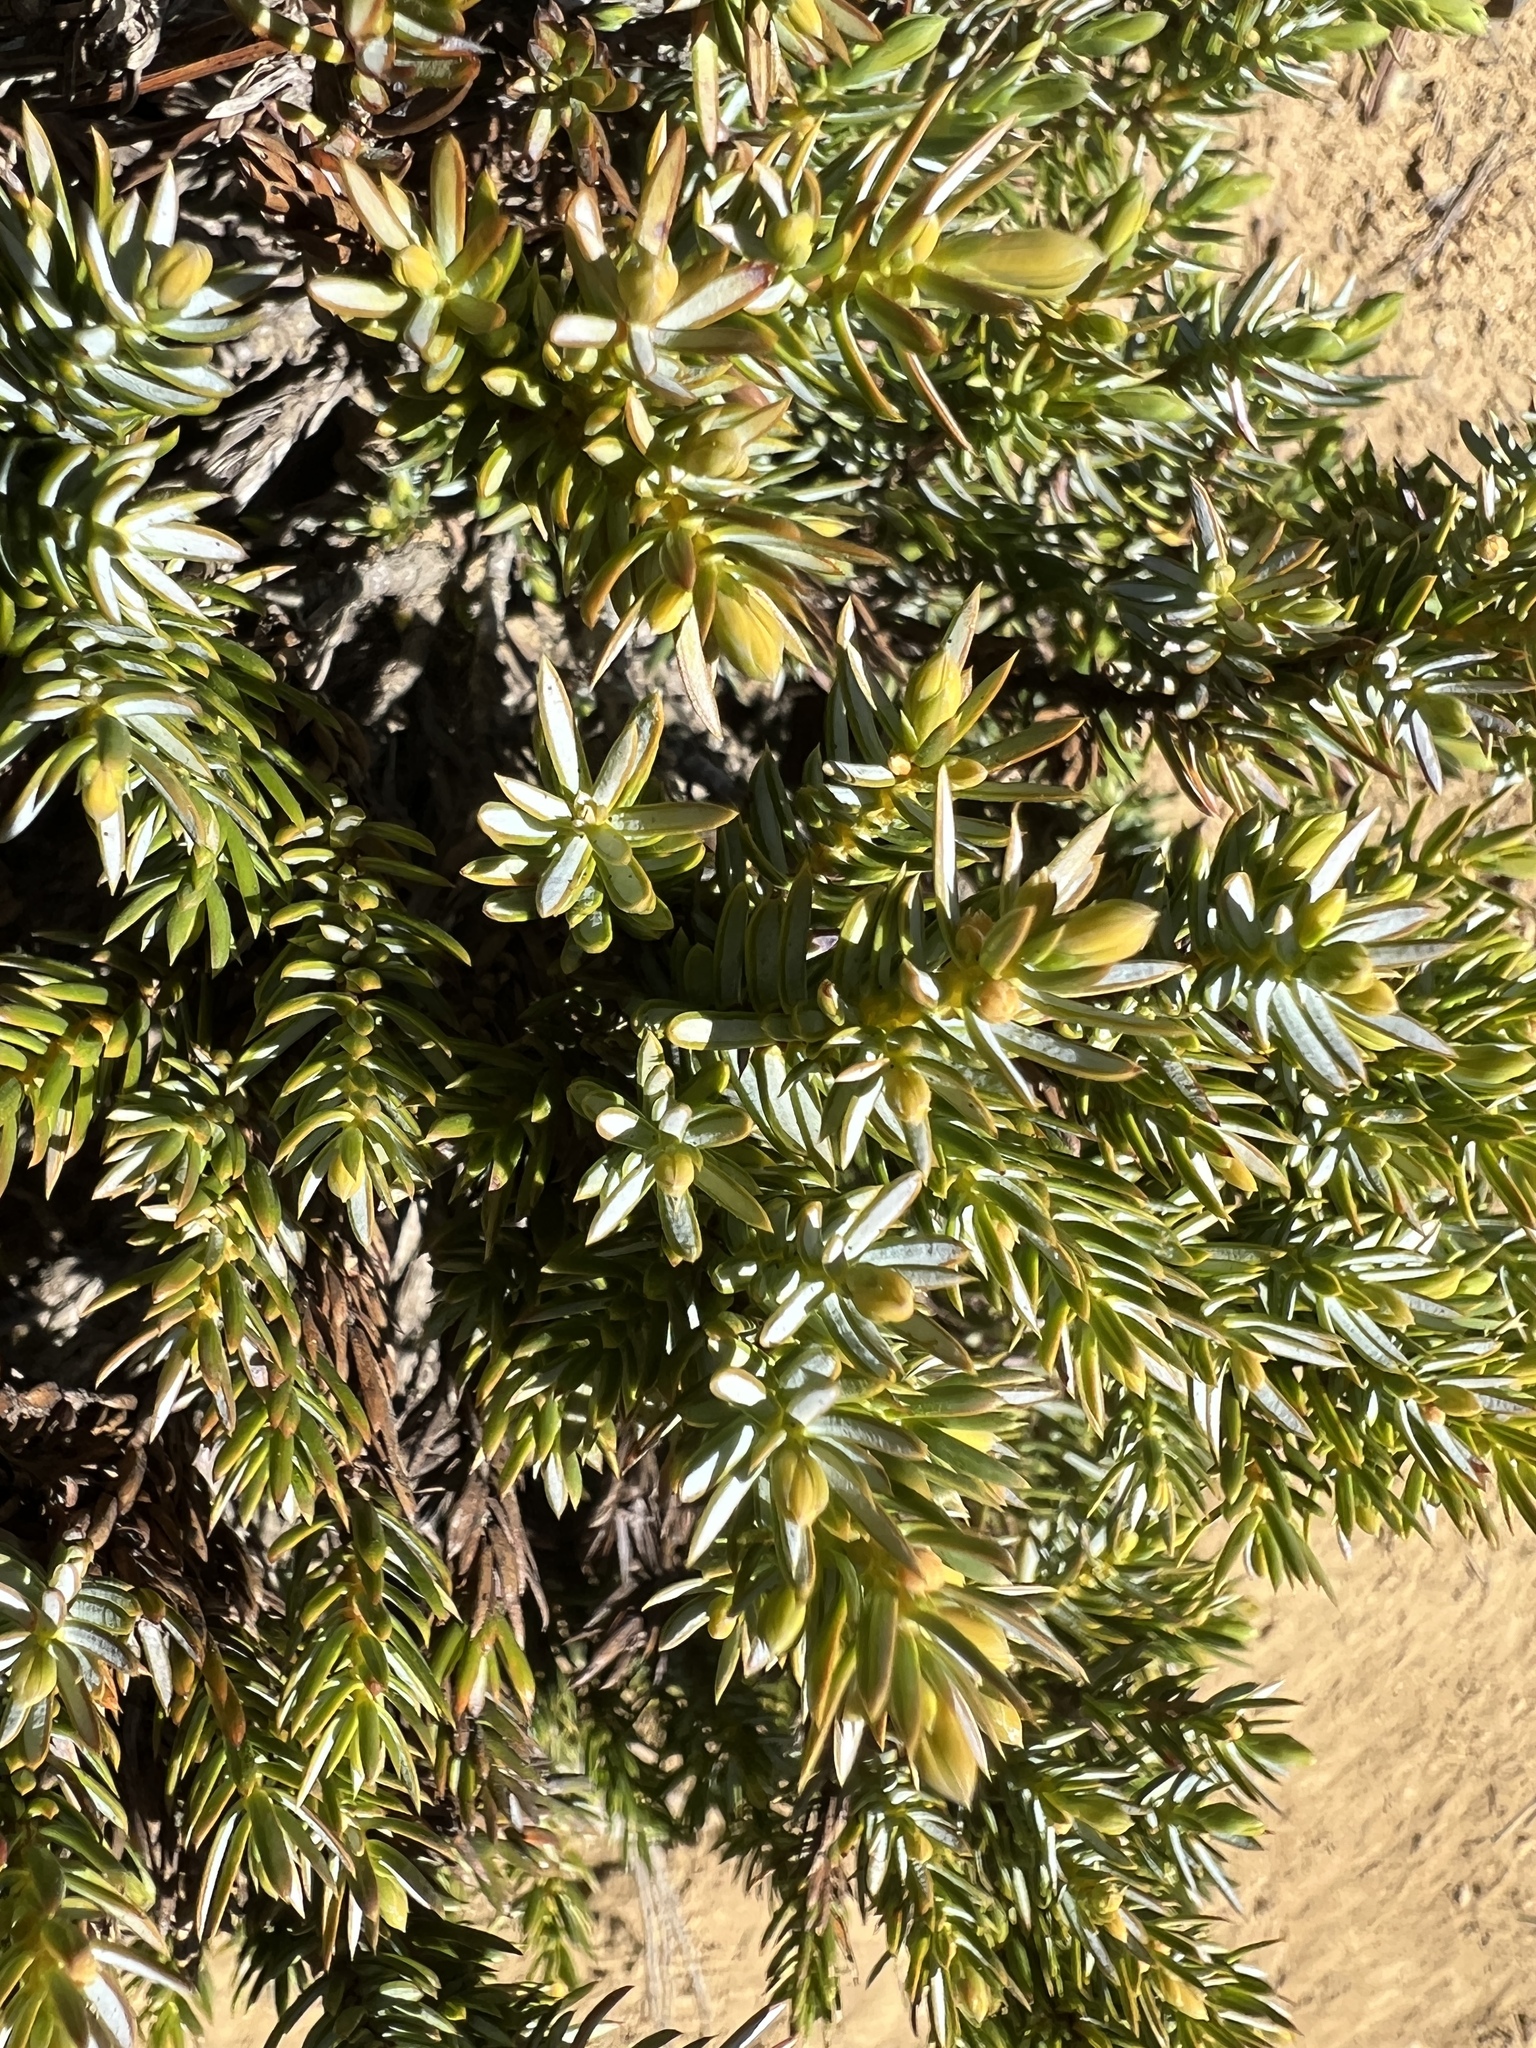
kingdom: Plantae
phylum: Tracheophyta
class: Pinopsida
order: Pinales
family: Cupressaceae
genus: Juniperus
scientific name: Juniperus communis
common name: Common juniper
